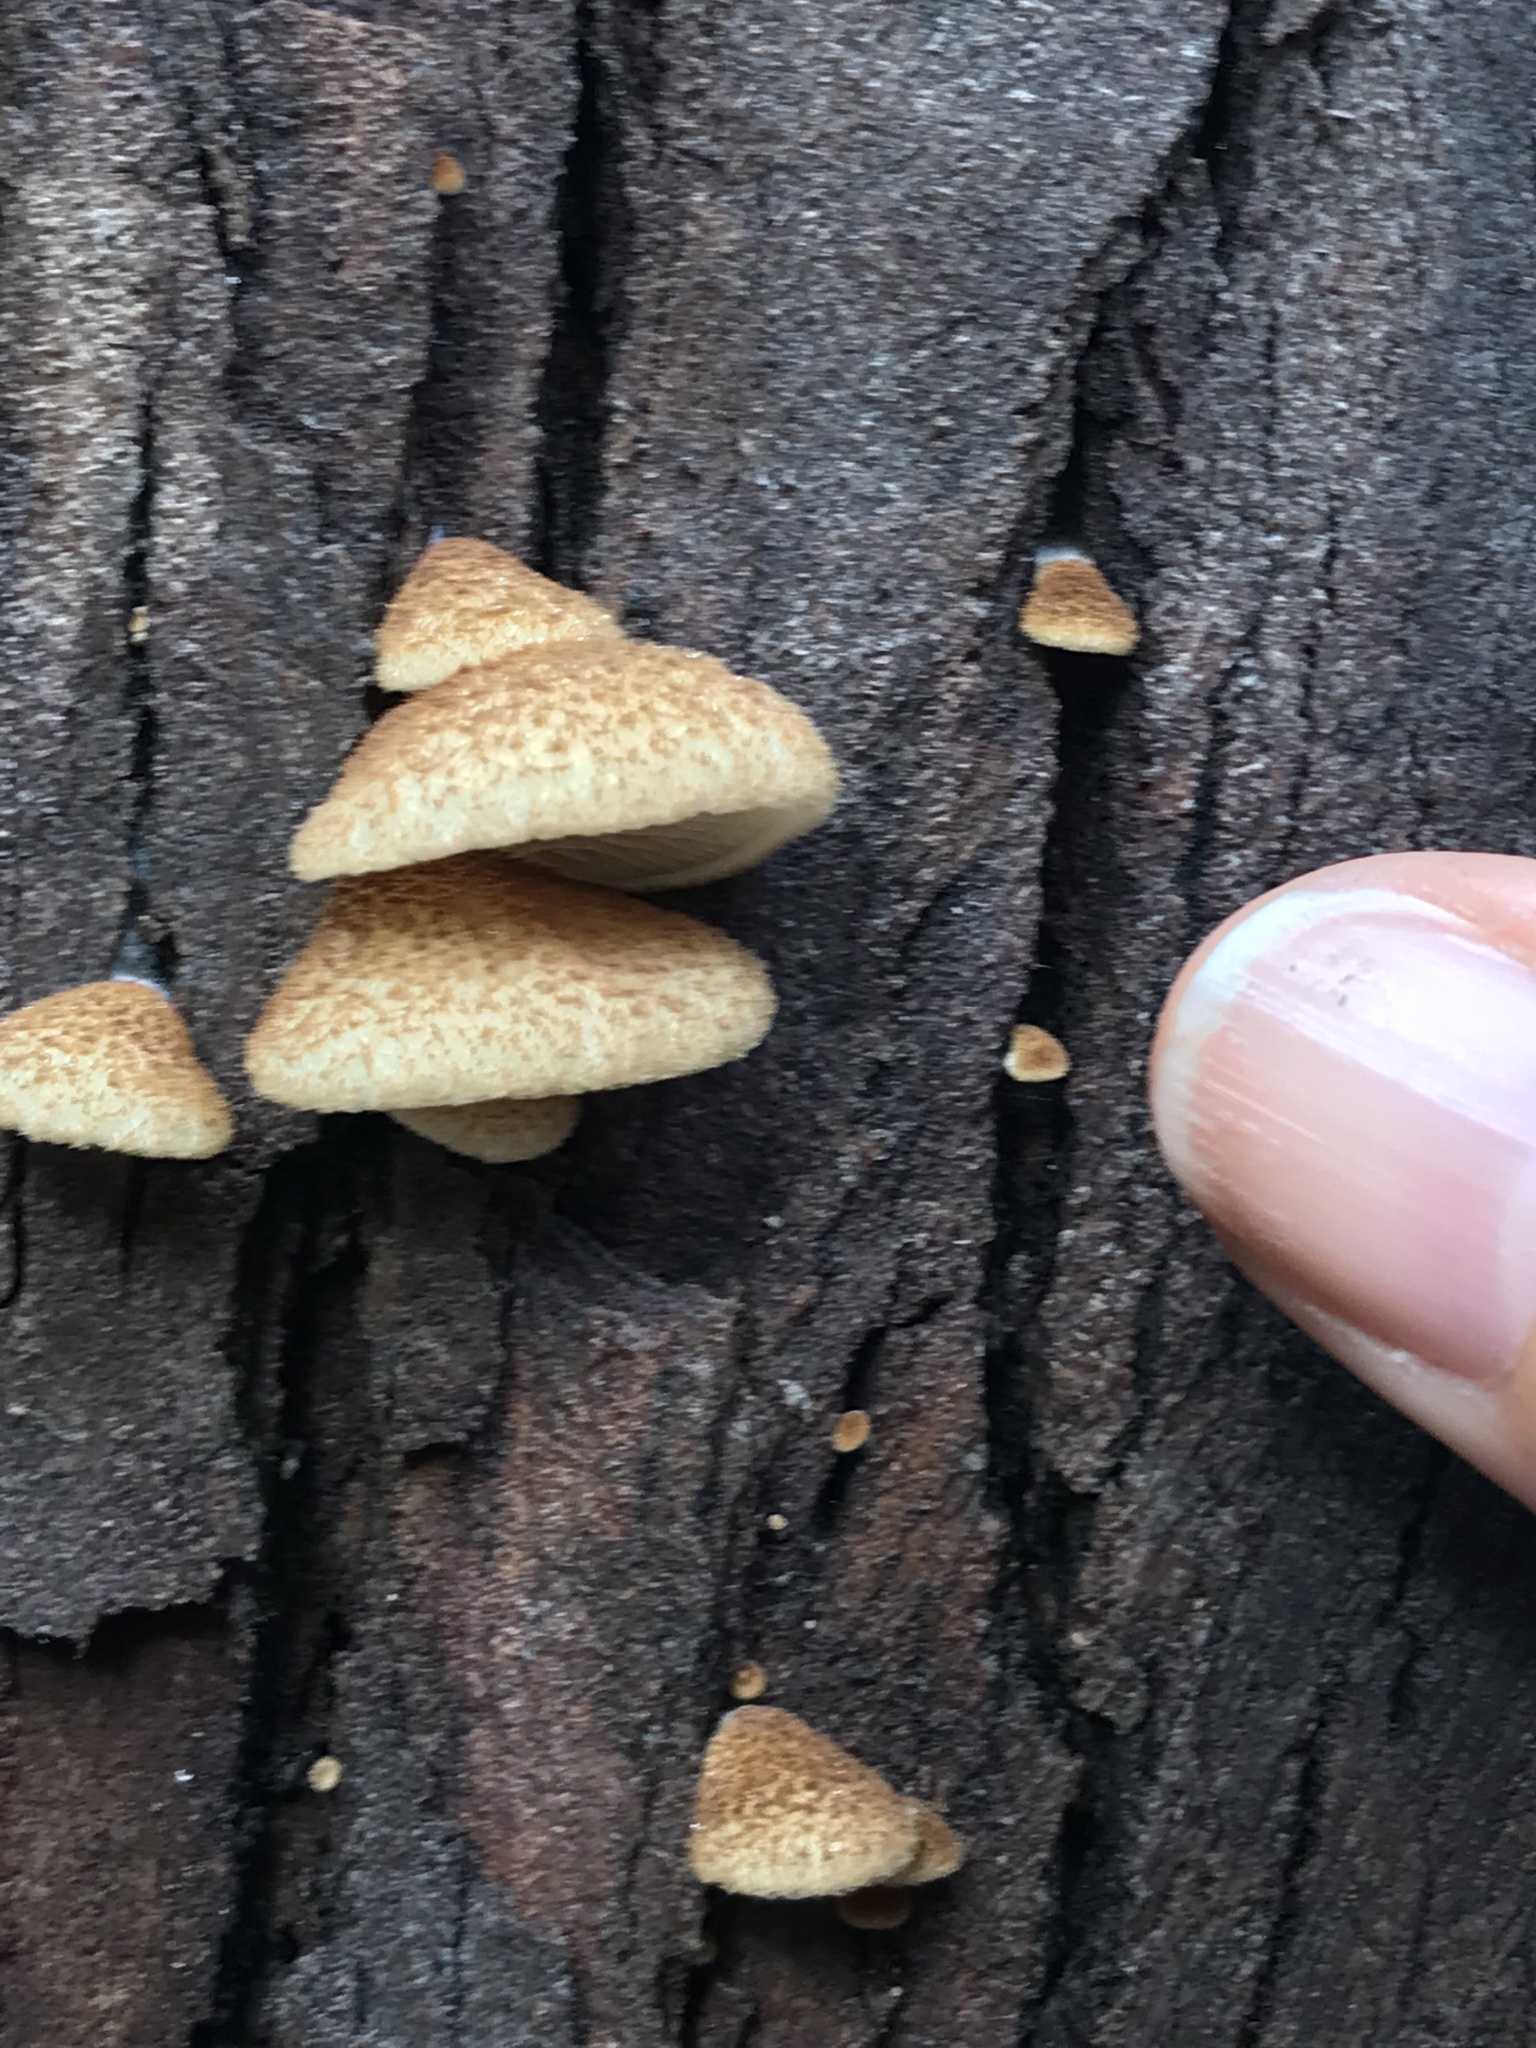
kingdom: Fungi
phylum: Basidiomycota
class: Agaricomycetes
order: Agaricales
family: Crepidotaceae
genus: Crepidotus
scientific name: Crepidotus mollis
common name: Peeling oysterling
